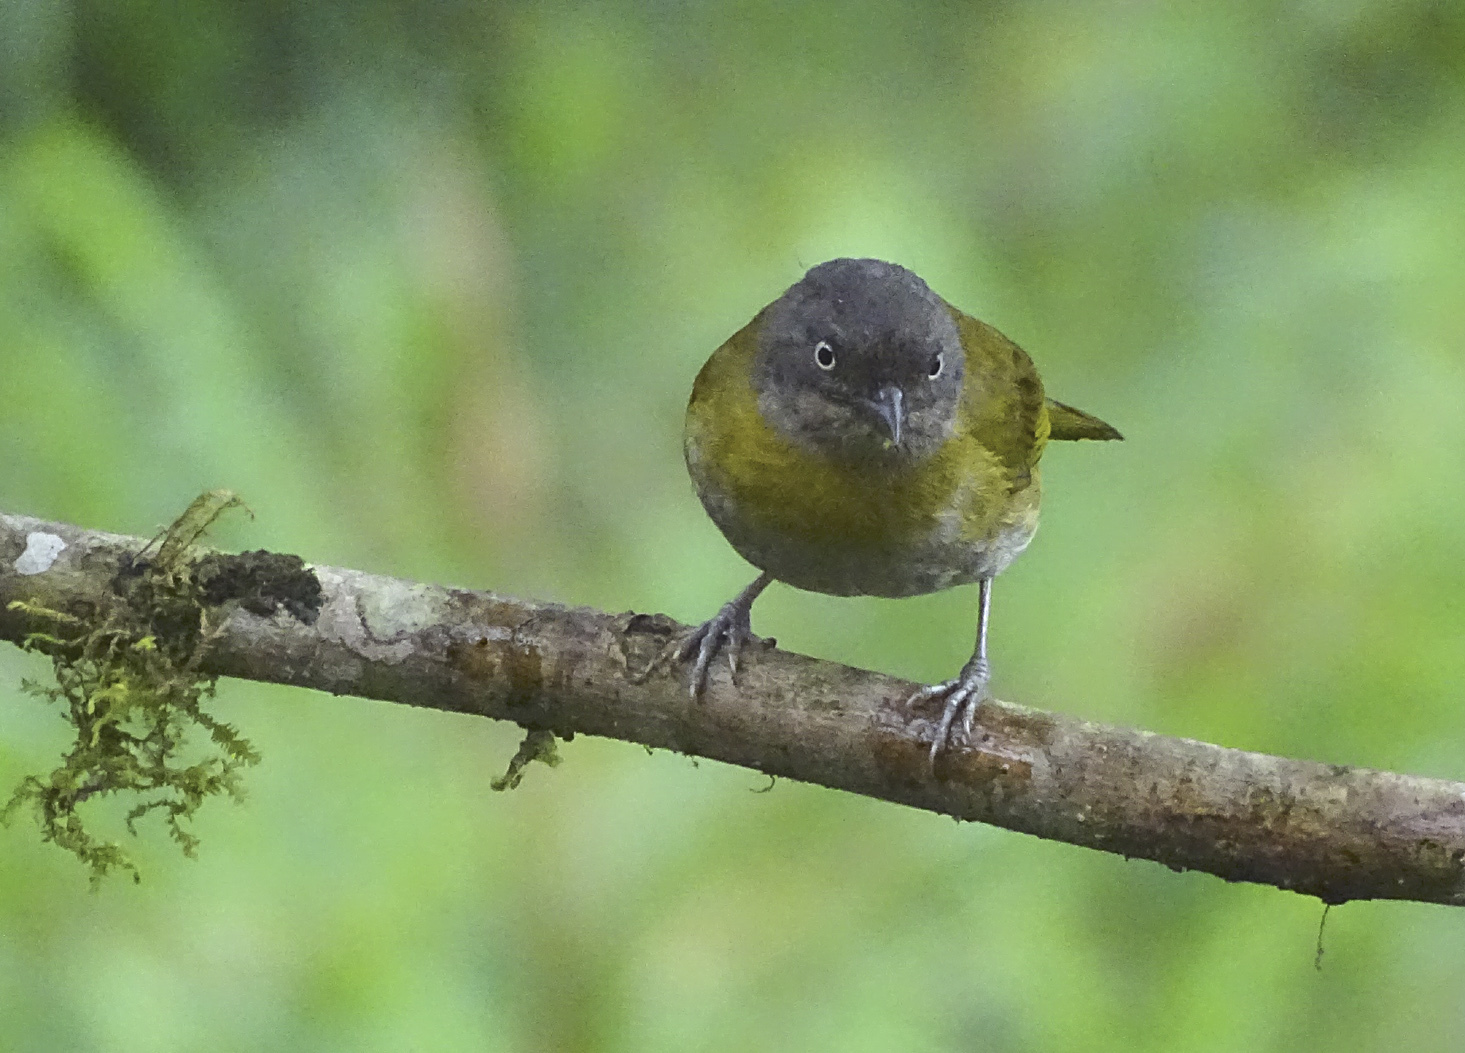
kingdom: Animalia
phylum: Chordata
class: Aves
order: Passeriformes
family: Passerellidae
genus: Chlorospingus
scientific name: Chlorospingus flavopectus
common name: Common chlorospingus
